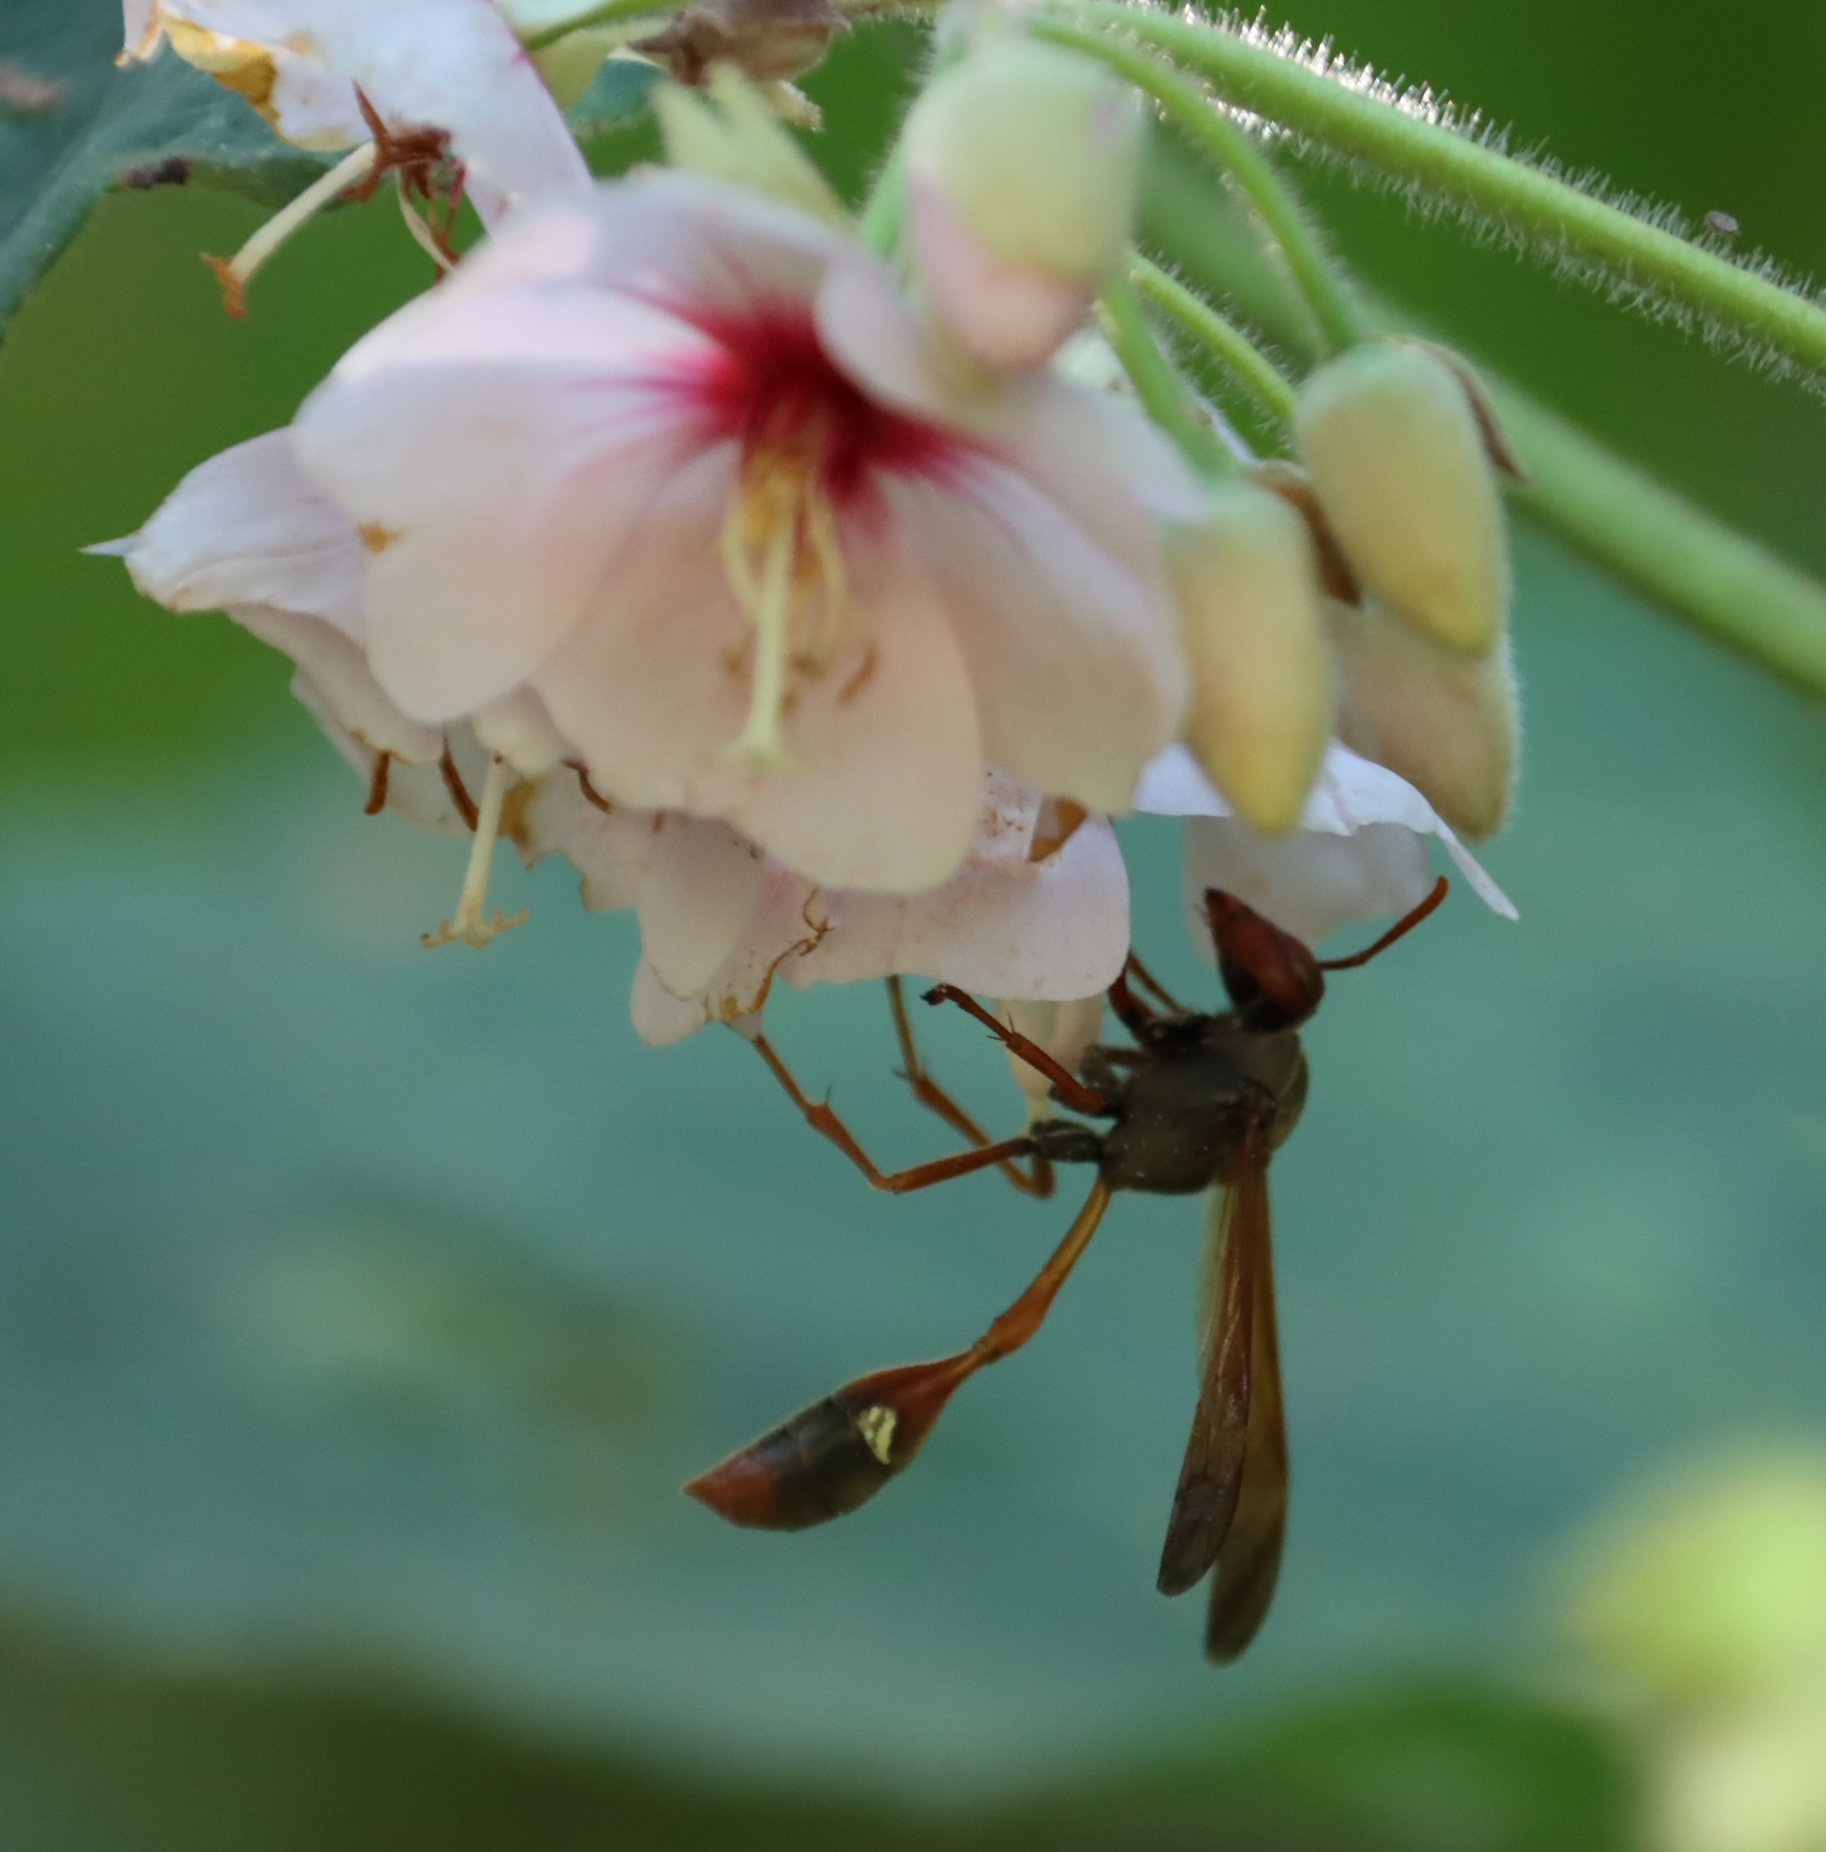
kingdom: Plantae
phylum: Tracheophyta
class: Magnoliopsida
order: Malvales
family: Malvaceae
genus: Dombeya
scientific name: Dombeya burgessiae
